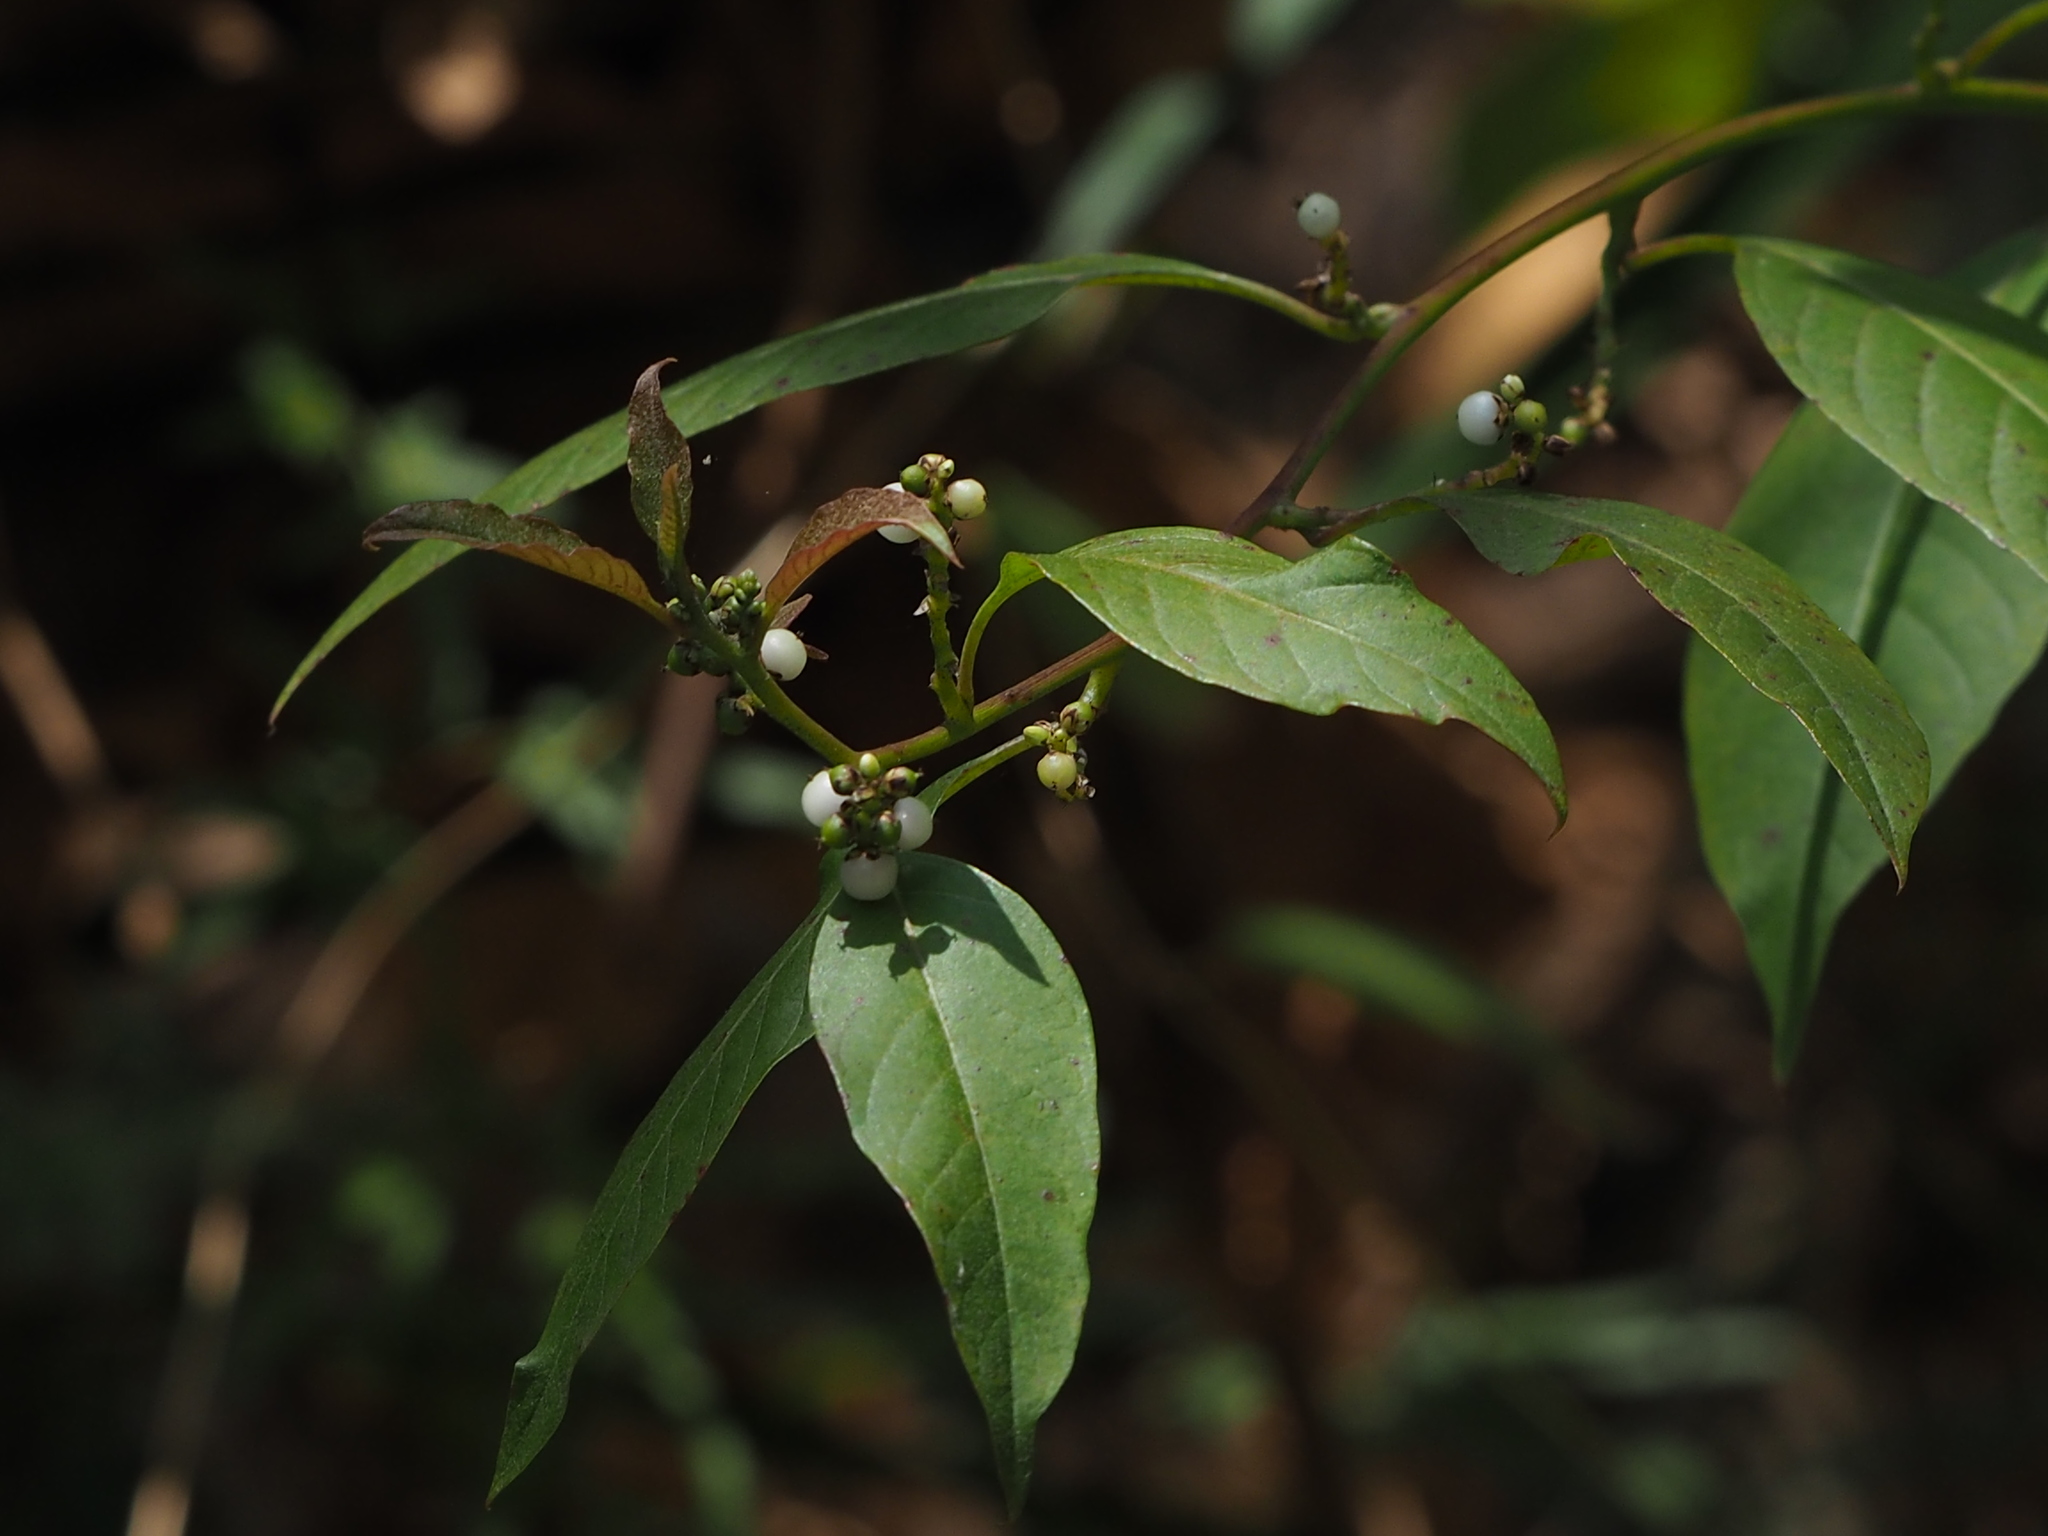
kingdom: Plantae
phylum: Tracheophyta
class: Magnoliopsida
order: Caryophyllales
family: Amaranthaceae
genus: Deeringia
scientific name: Deeringia polysperma
